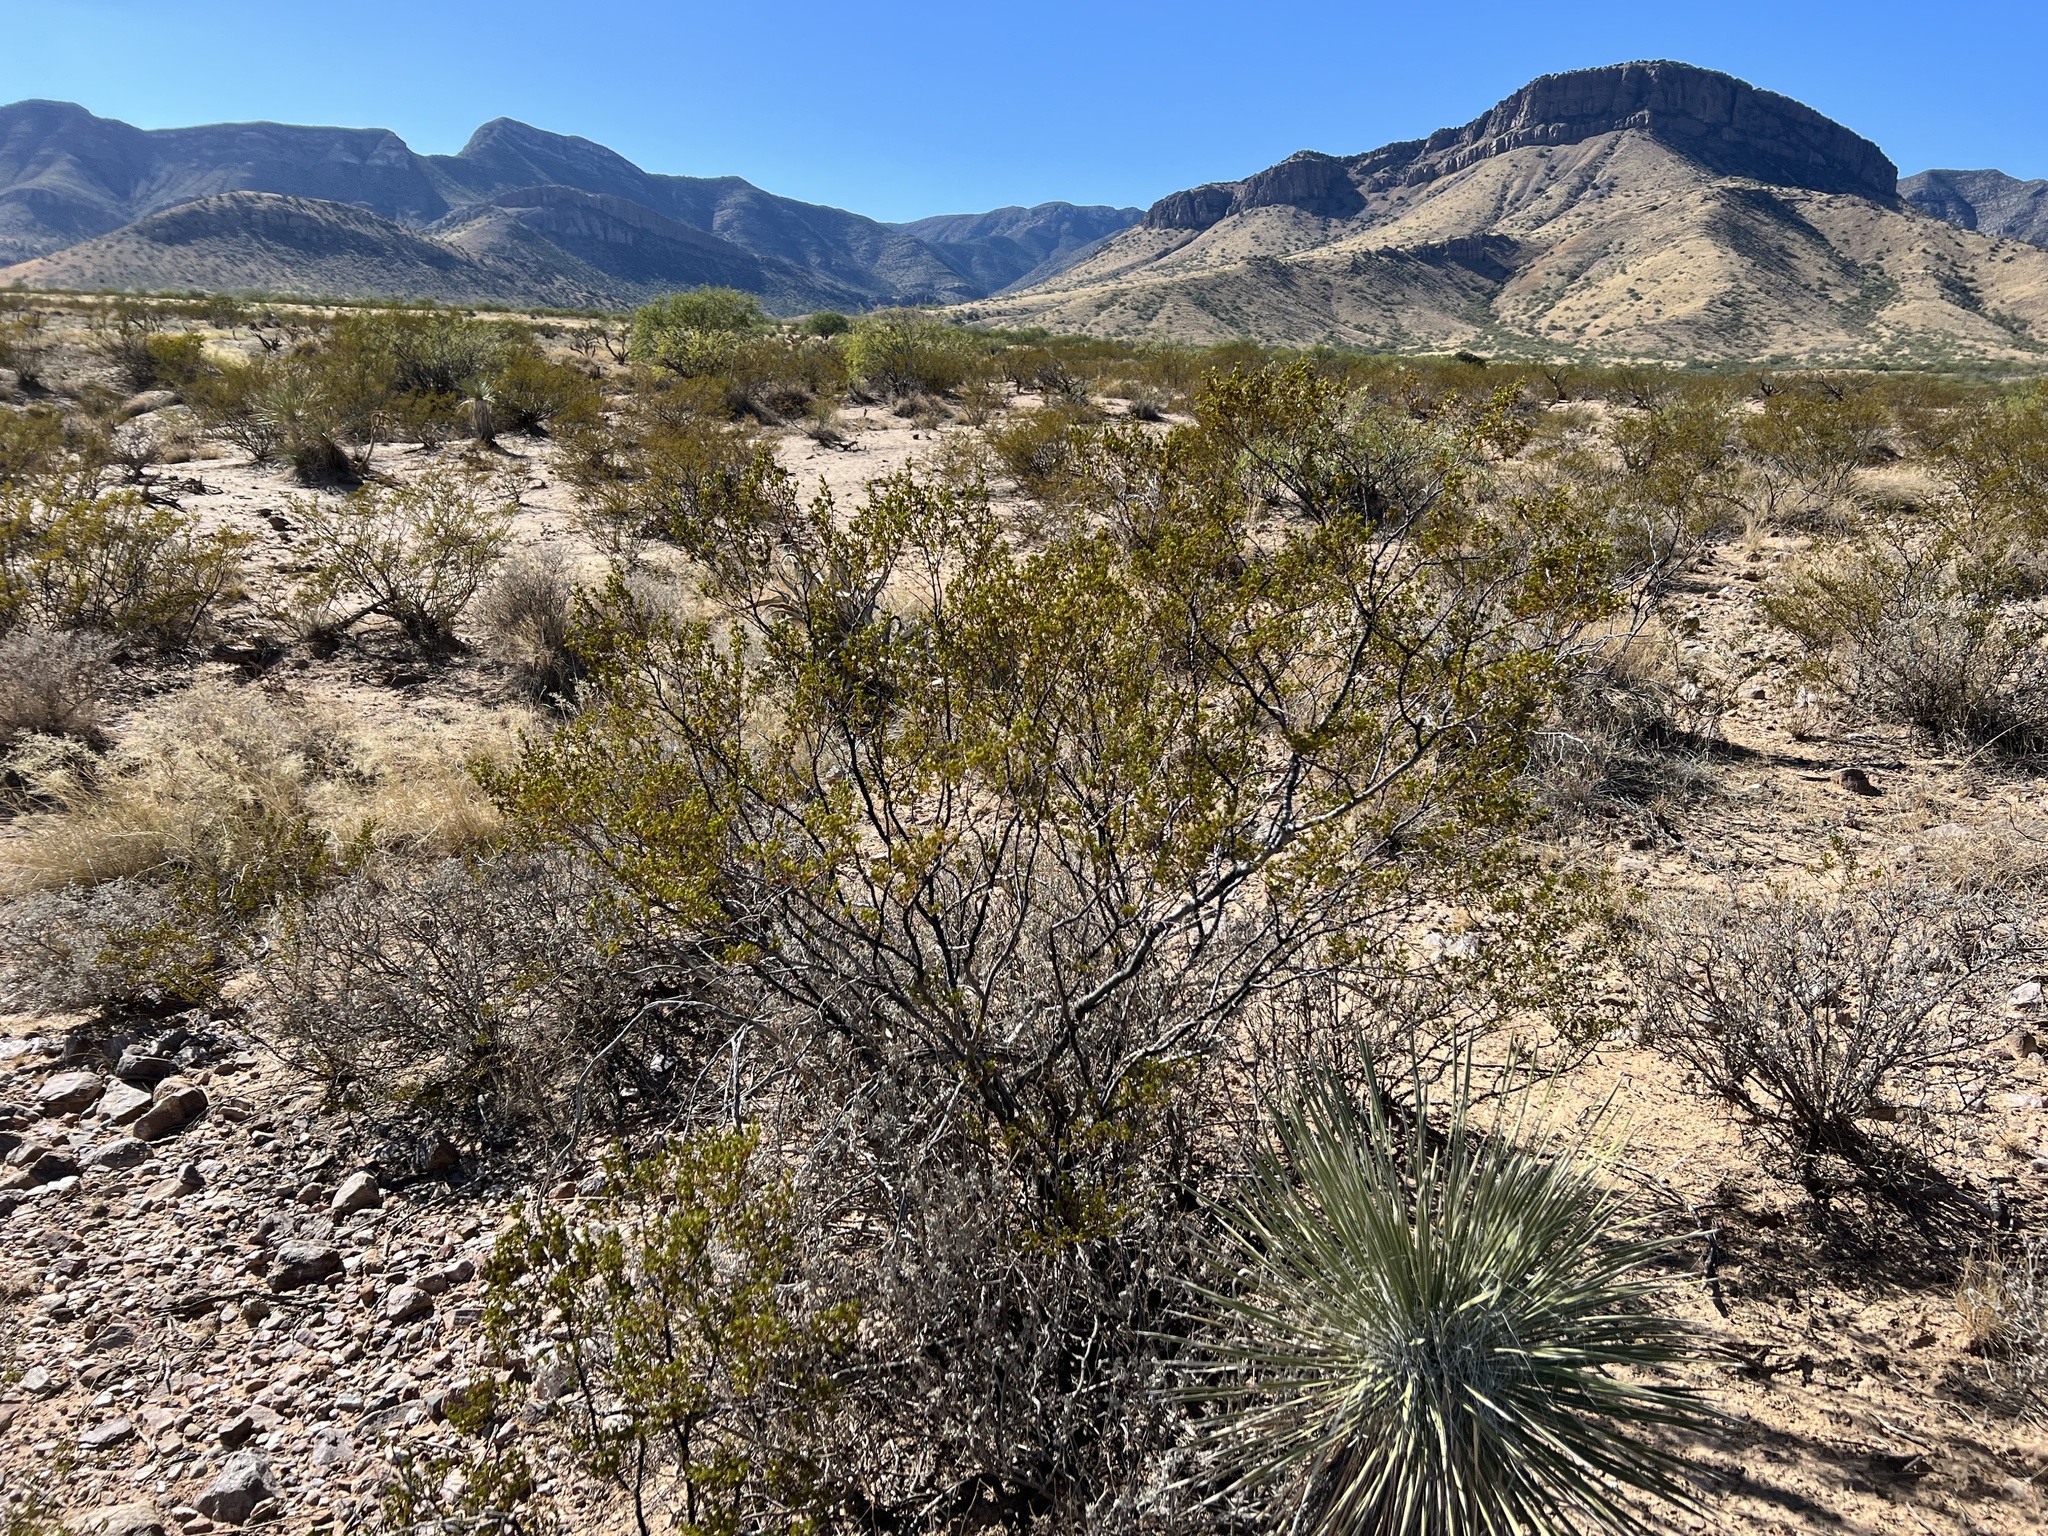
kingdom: Plantae
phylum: Tracheophyta
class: Magnoliopsida
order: Zygophyllales
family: Zygophyllaceae
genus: Larrea
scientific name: Larrea tridentata
